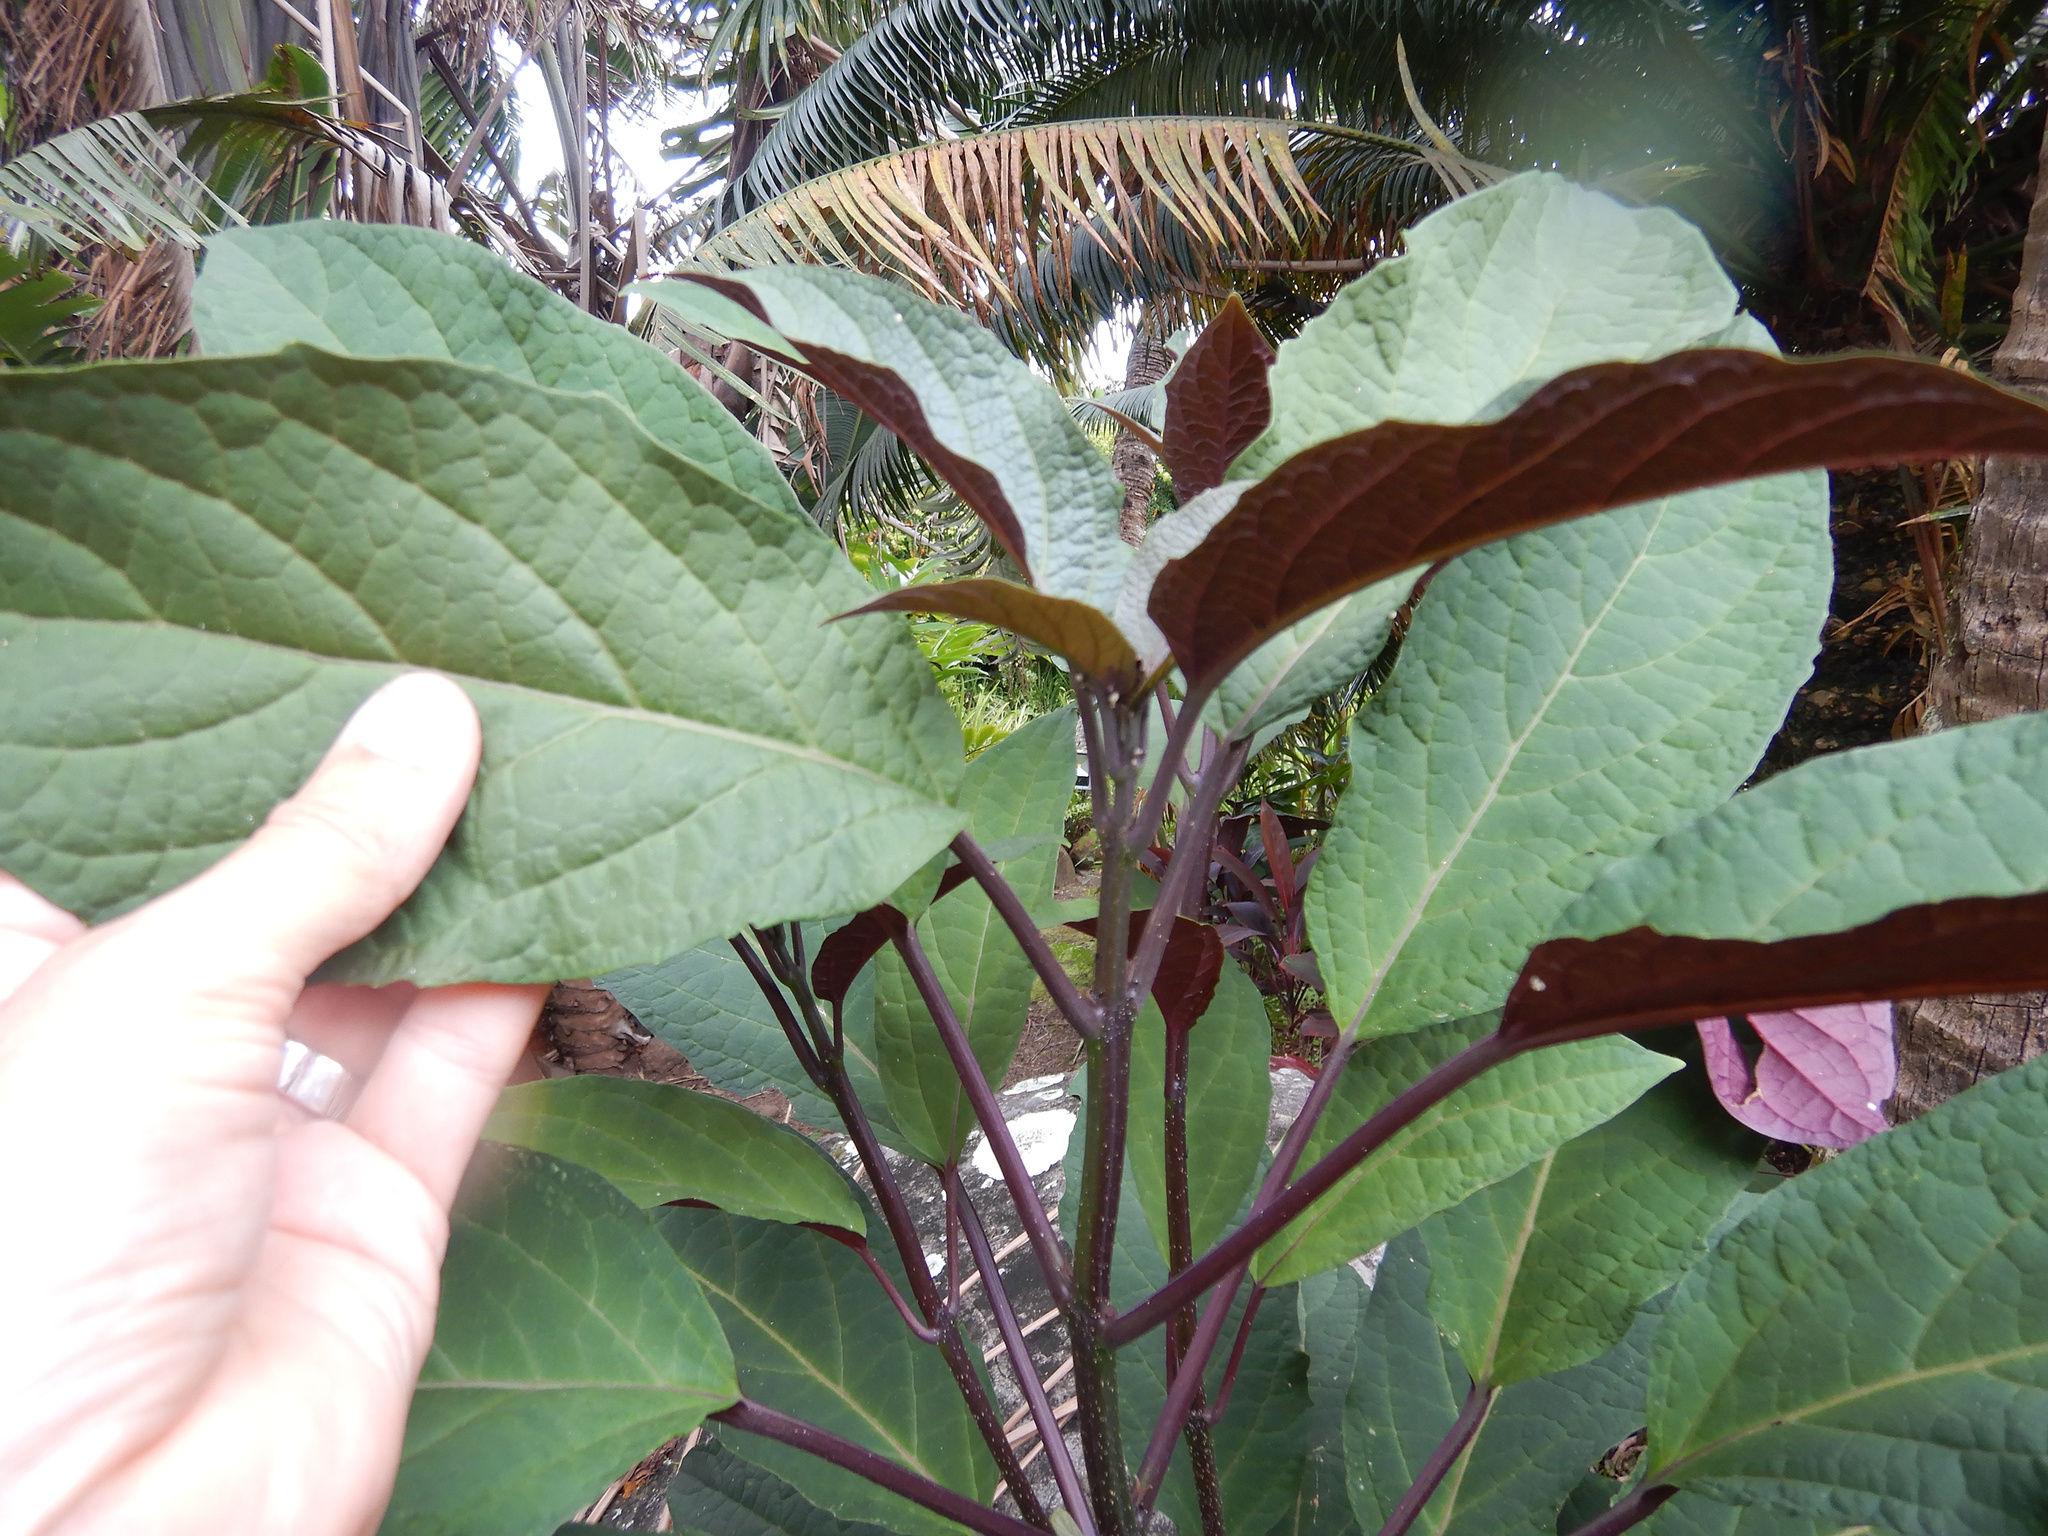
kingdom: Plantae
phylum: Tracheophyta
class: Magnoliopsida
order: Lamiales
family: Lamiaceae
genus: Clerodendrum
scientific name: Clerodendrum quadriloculare
